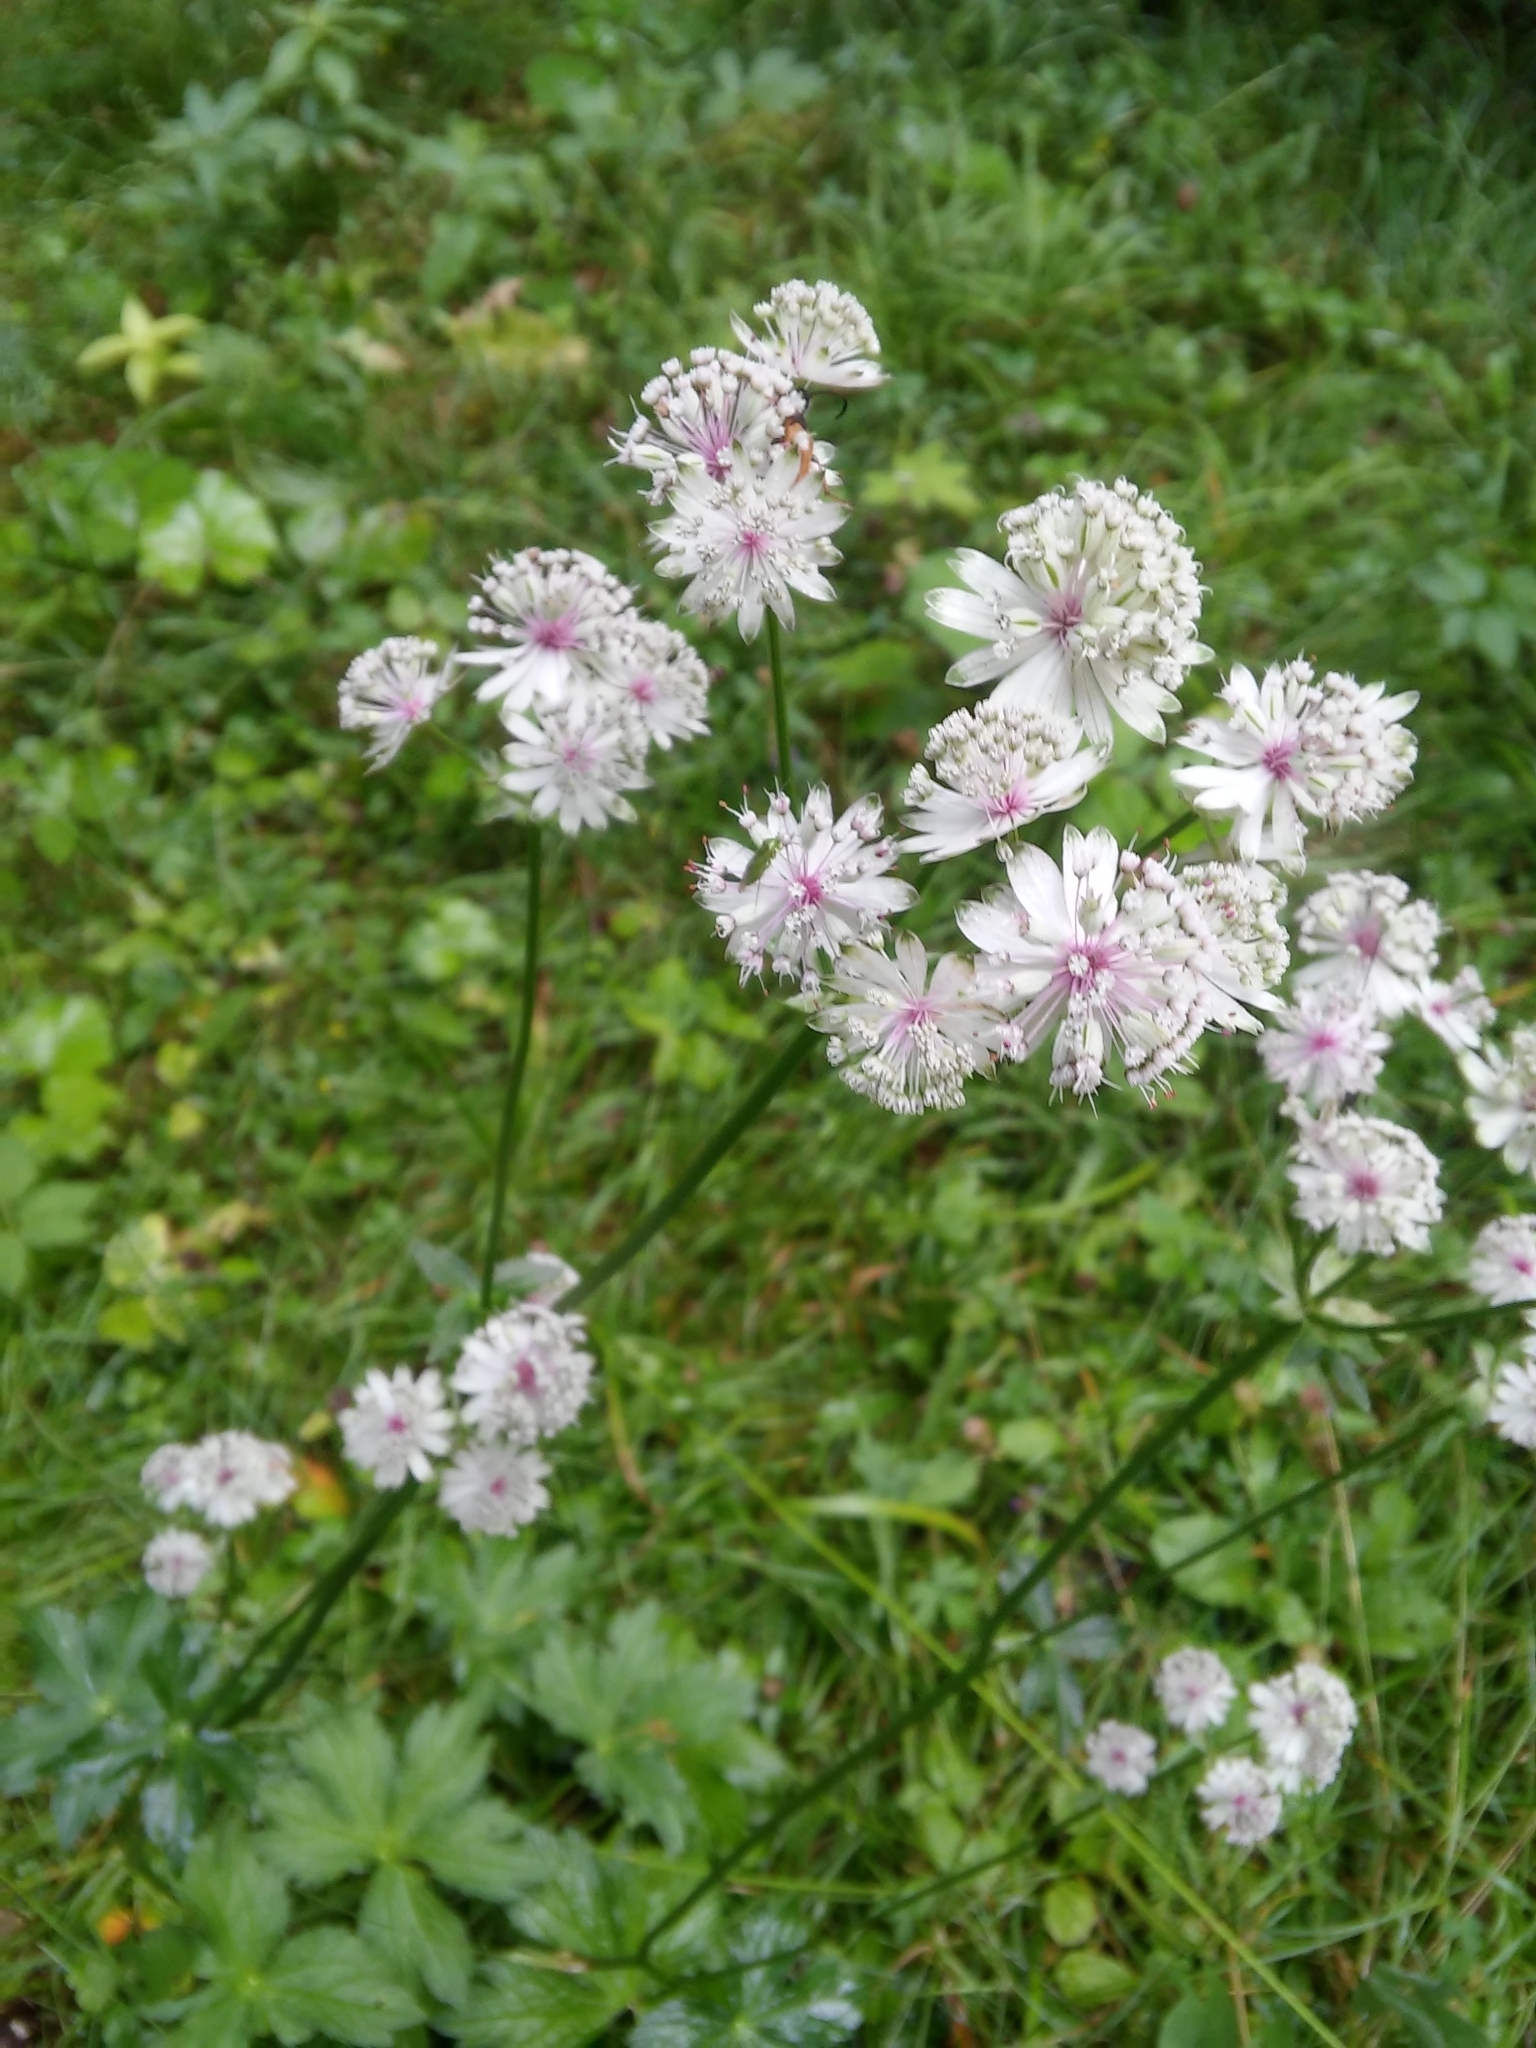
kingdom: Plantae
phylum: Tracheophyta
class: Magnoliopsida
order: Apiales
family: Apiaceae
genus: Astrantia
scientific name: Astrantia major
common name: Greater masterwort
